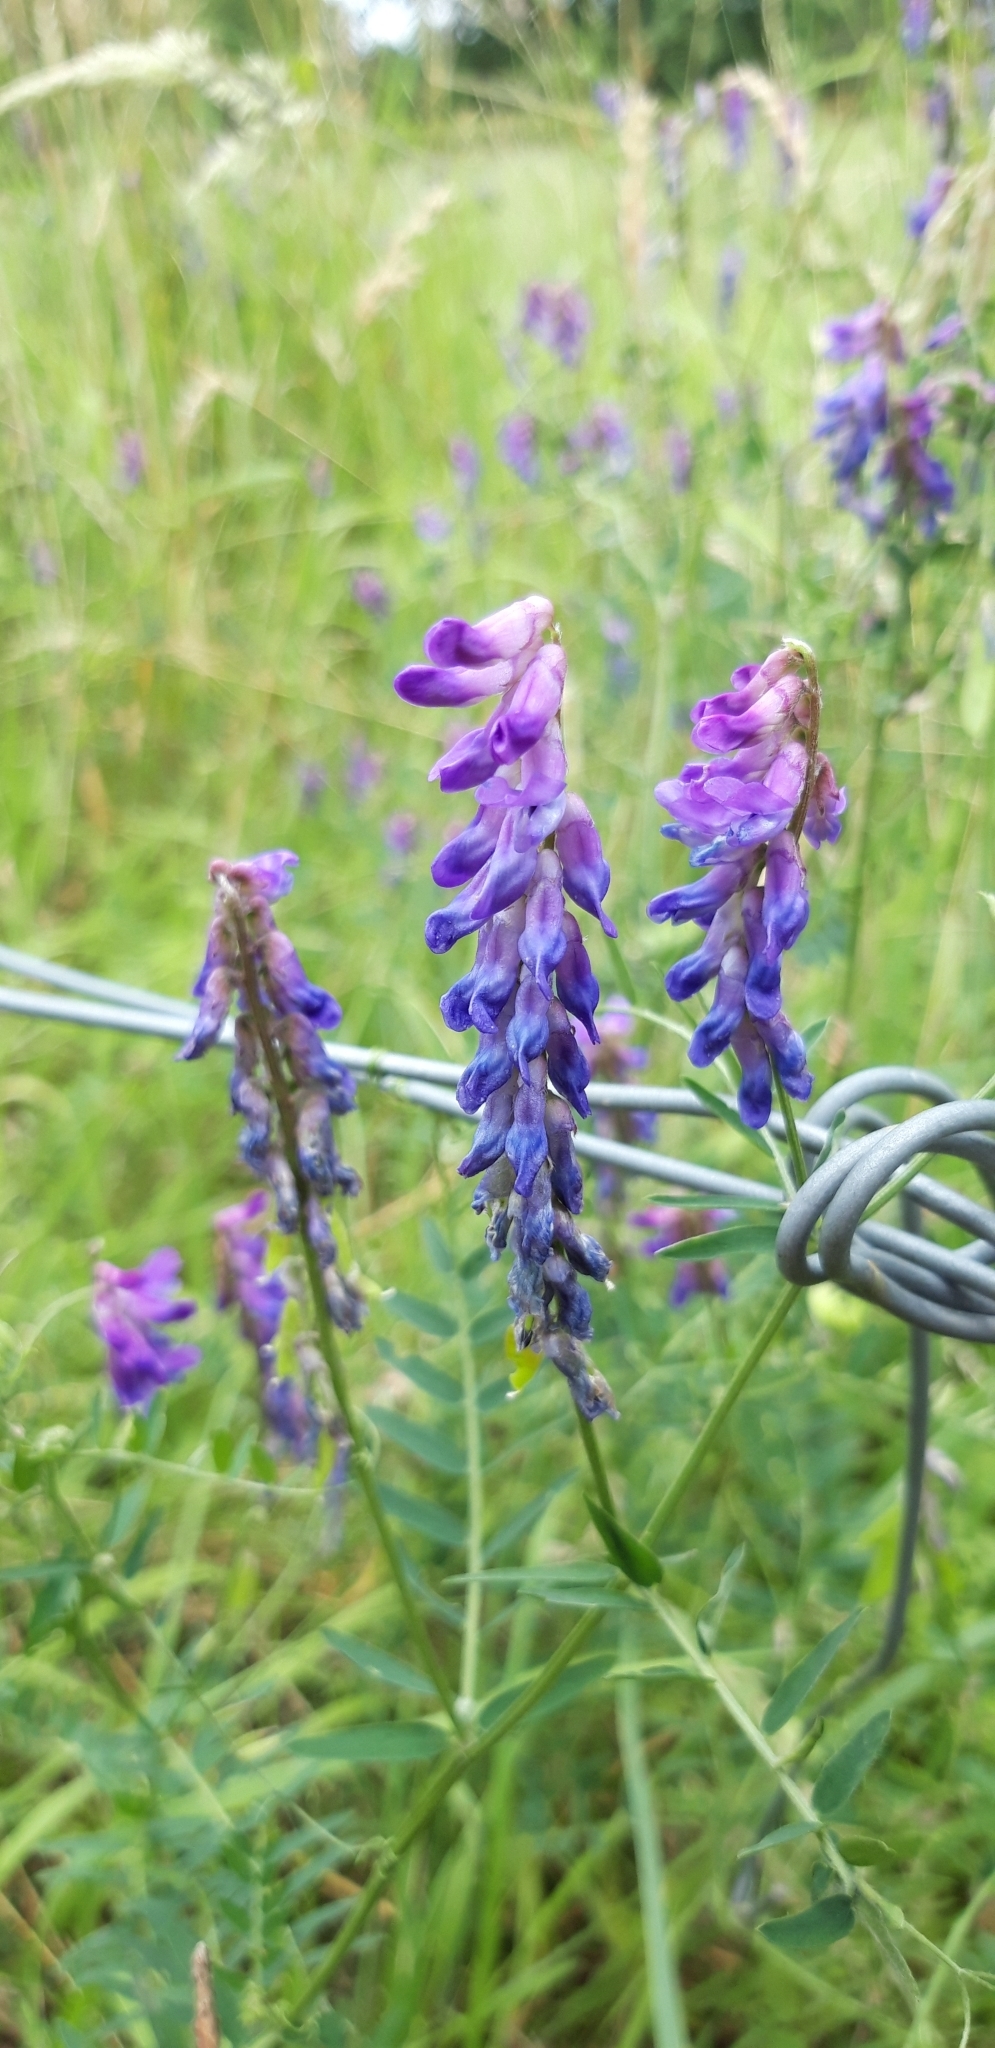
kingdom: Plantae
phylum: Tracheophyta
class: Magnoliopsida
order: Fabales
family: Fabaceae
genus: Vicia
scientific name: Vicia cracca
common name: Bird vetch
